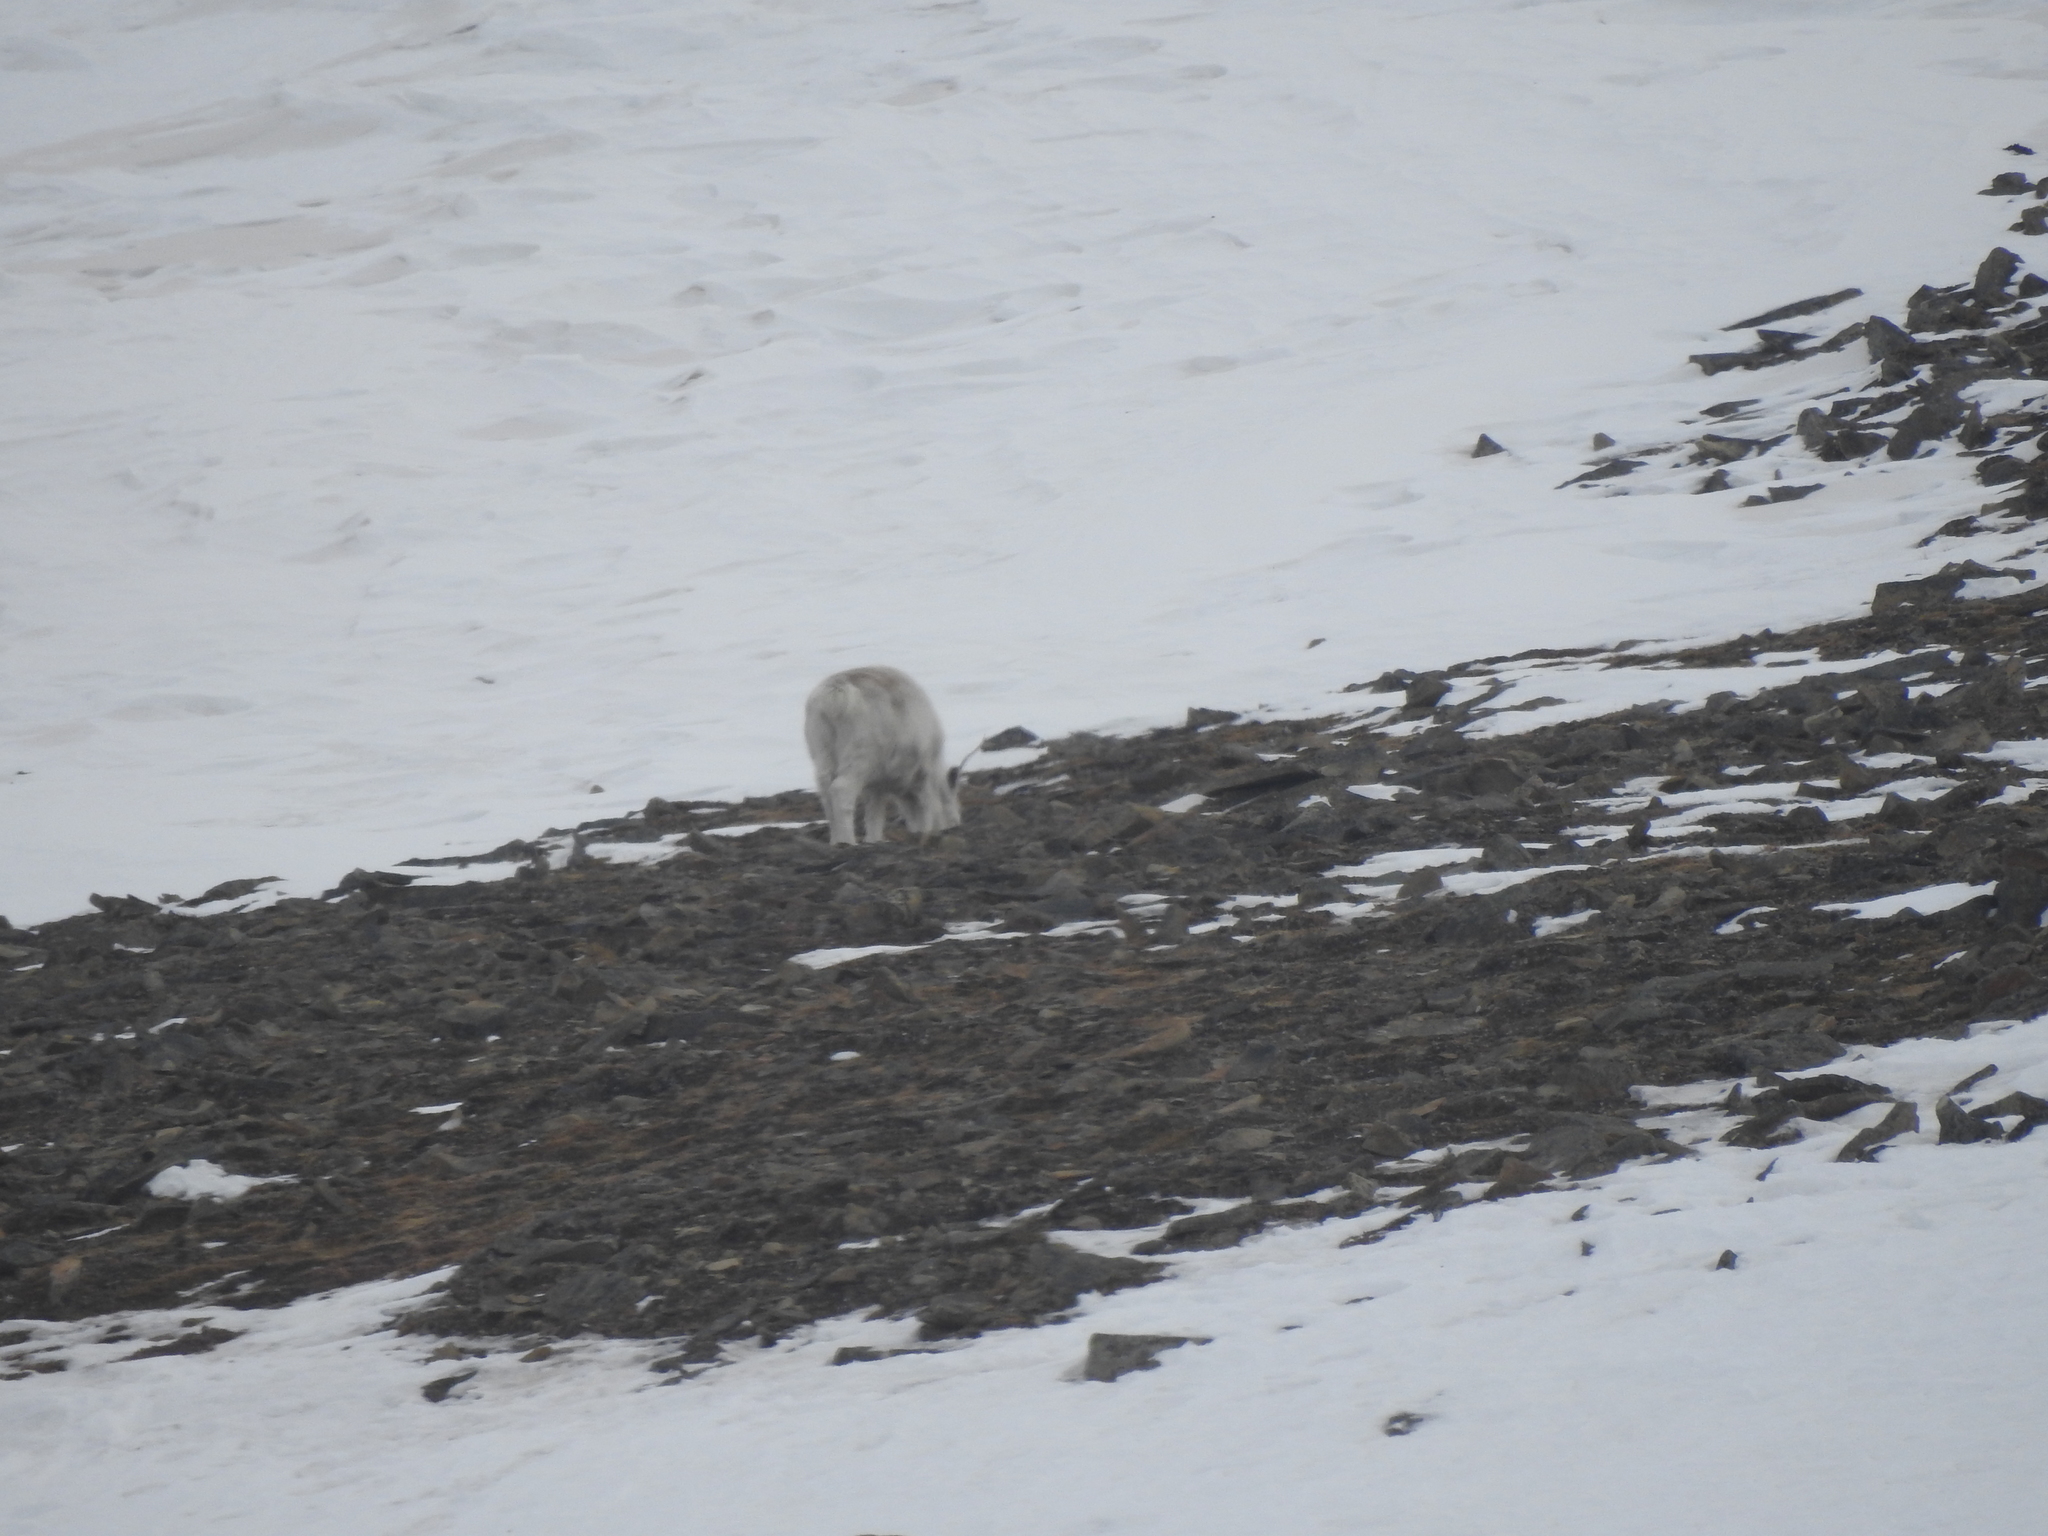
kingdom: Animalia
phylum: Chordata
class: Mammalia
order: Artiodactyla
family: Cervidae
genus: Rangifer
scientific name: Rangifer tarandus
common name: Reindeer
